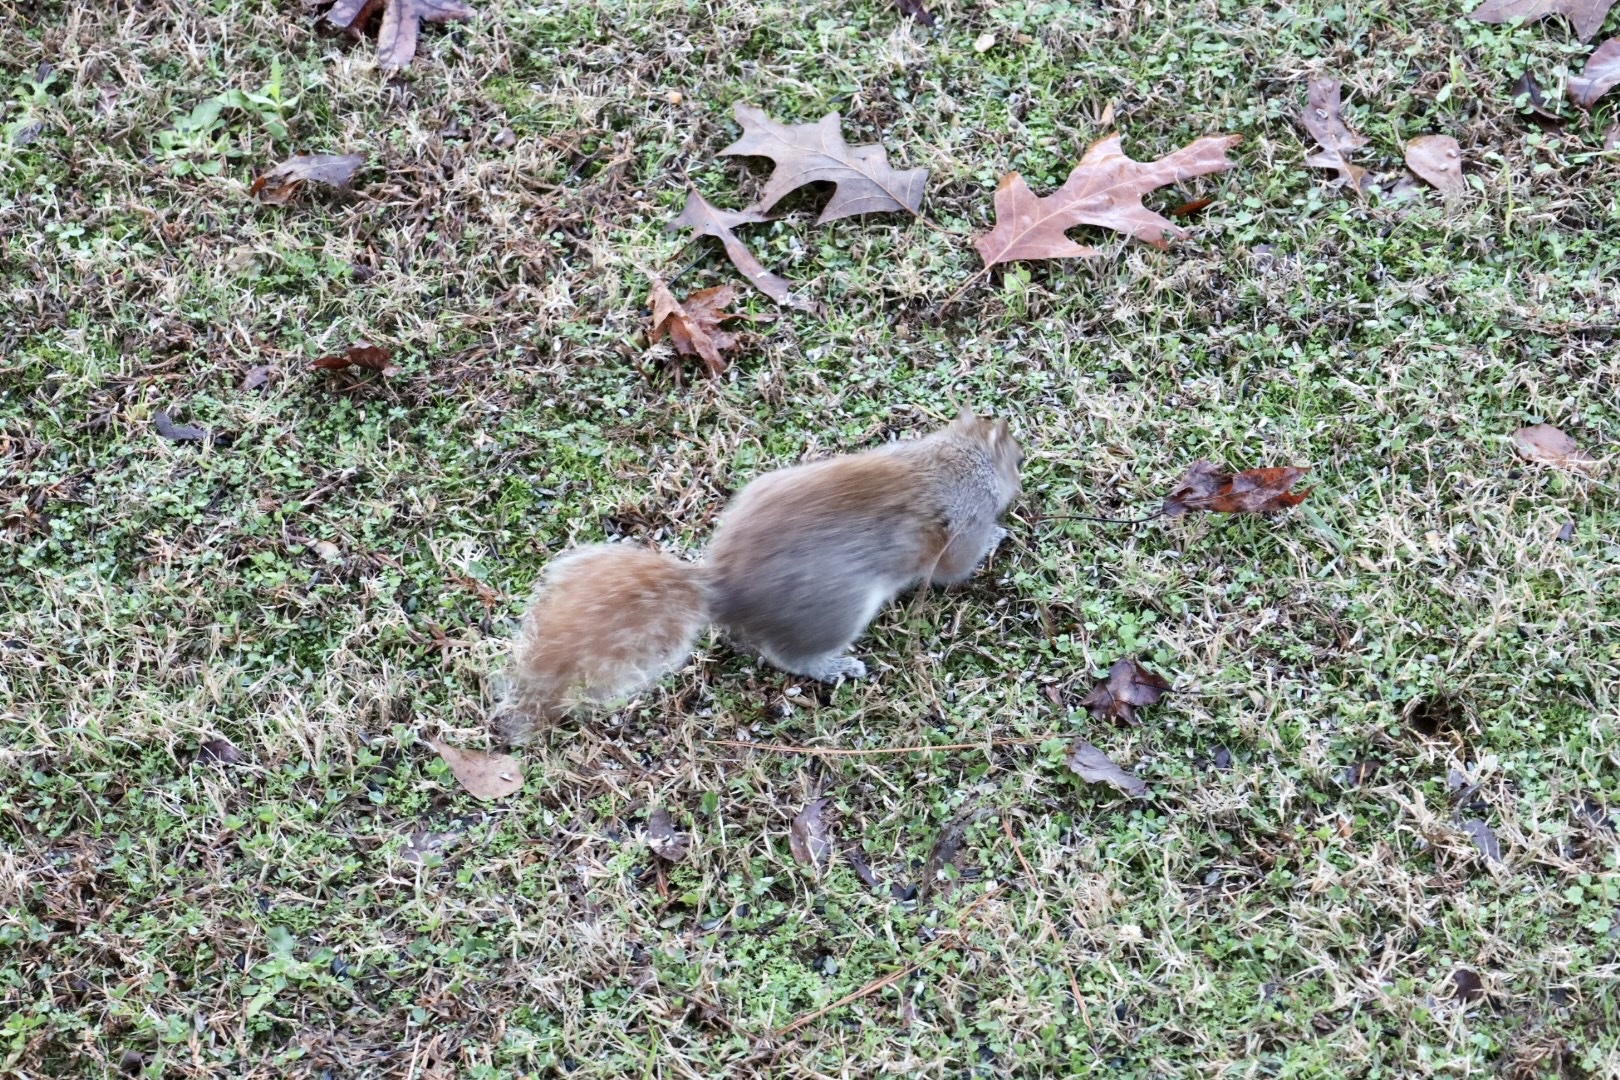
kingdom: Animalia
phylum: Chordata
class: Mammalia
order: Rodentia
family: Sciuridae
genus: Sciurus
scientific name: Sciurus carolinensis
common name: Eastern gray squirrel
